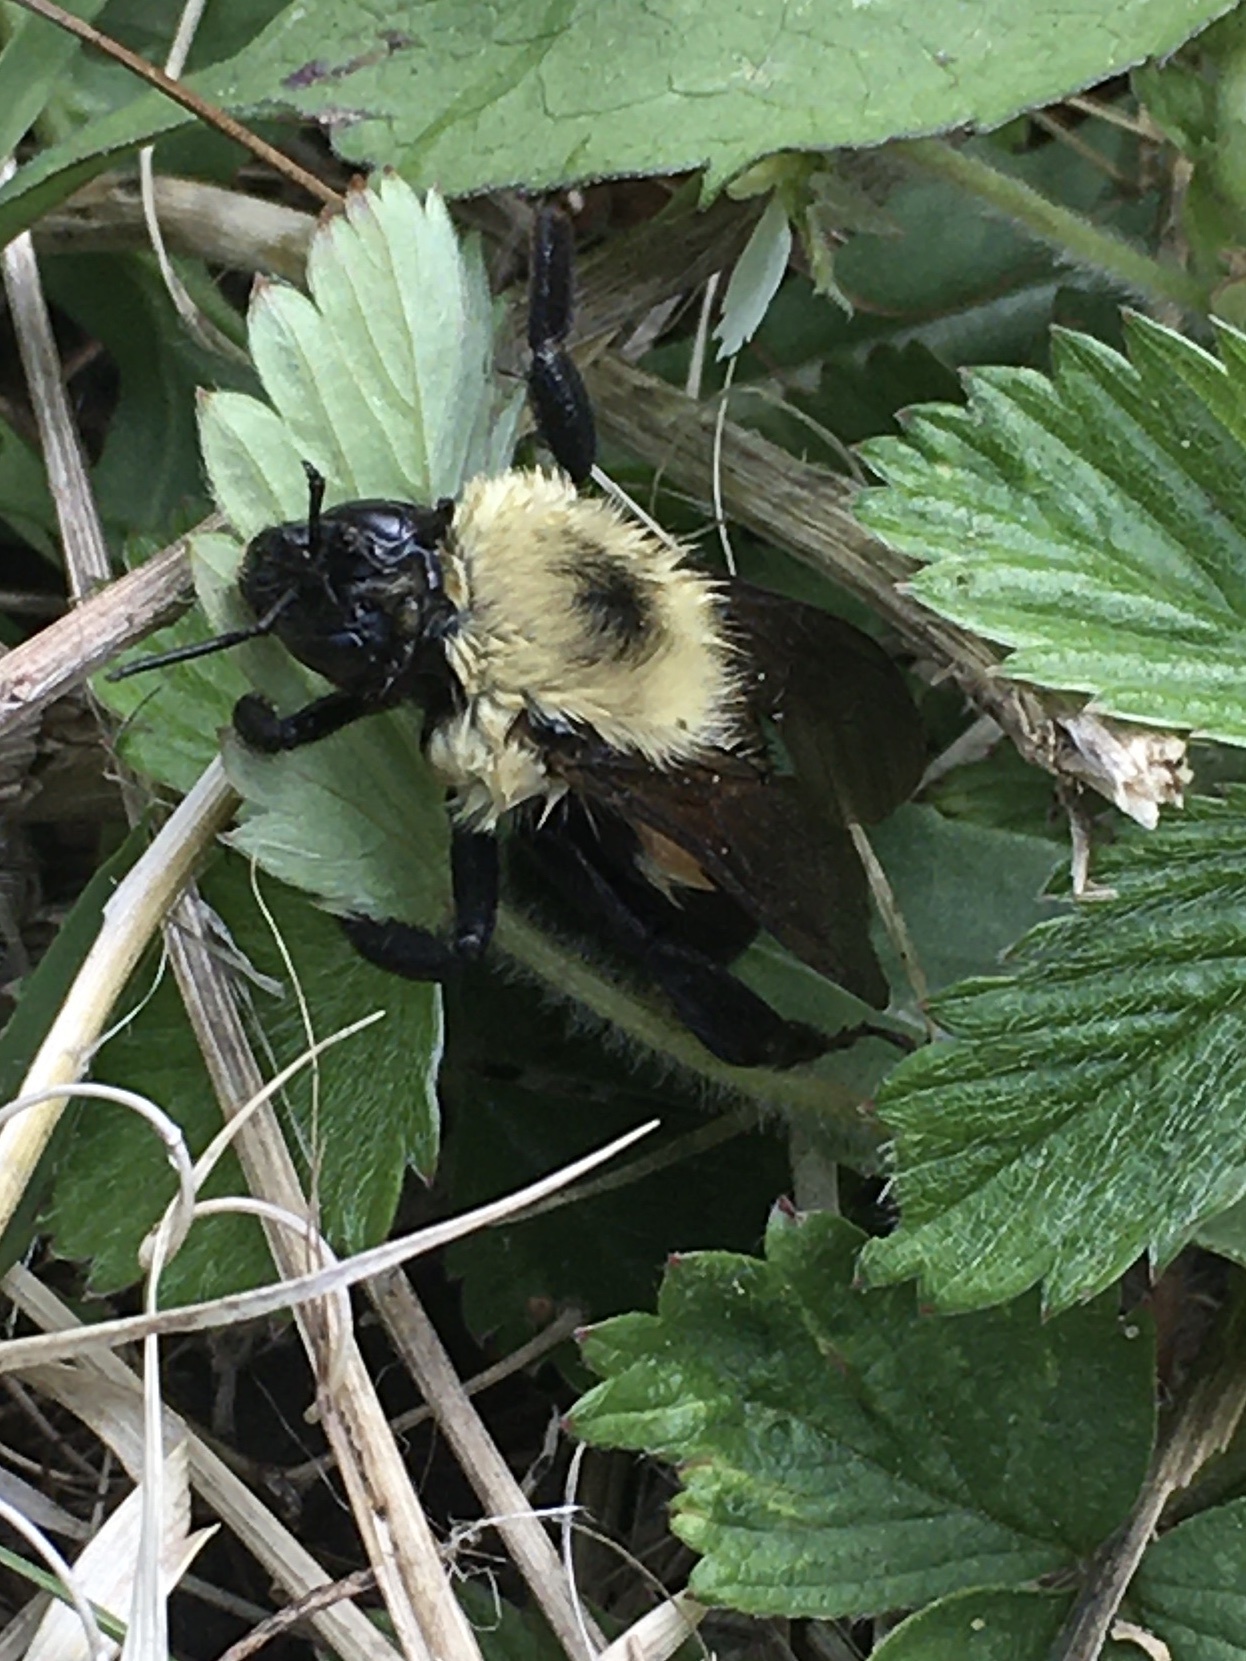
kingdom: Animalia
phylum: Arthropoda
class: Insecta
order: Hymenoptera
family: Apidae
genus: Bombus
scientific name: Bombus bimaculatus
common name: Two-spotted bumble bee
